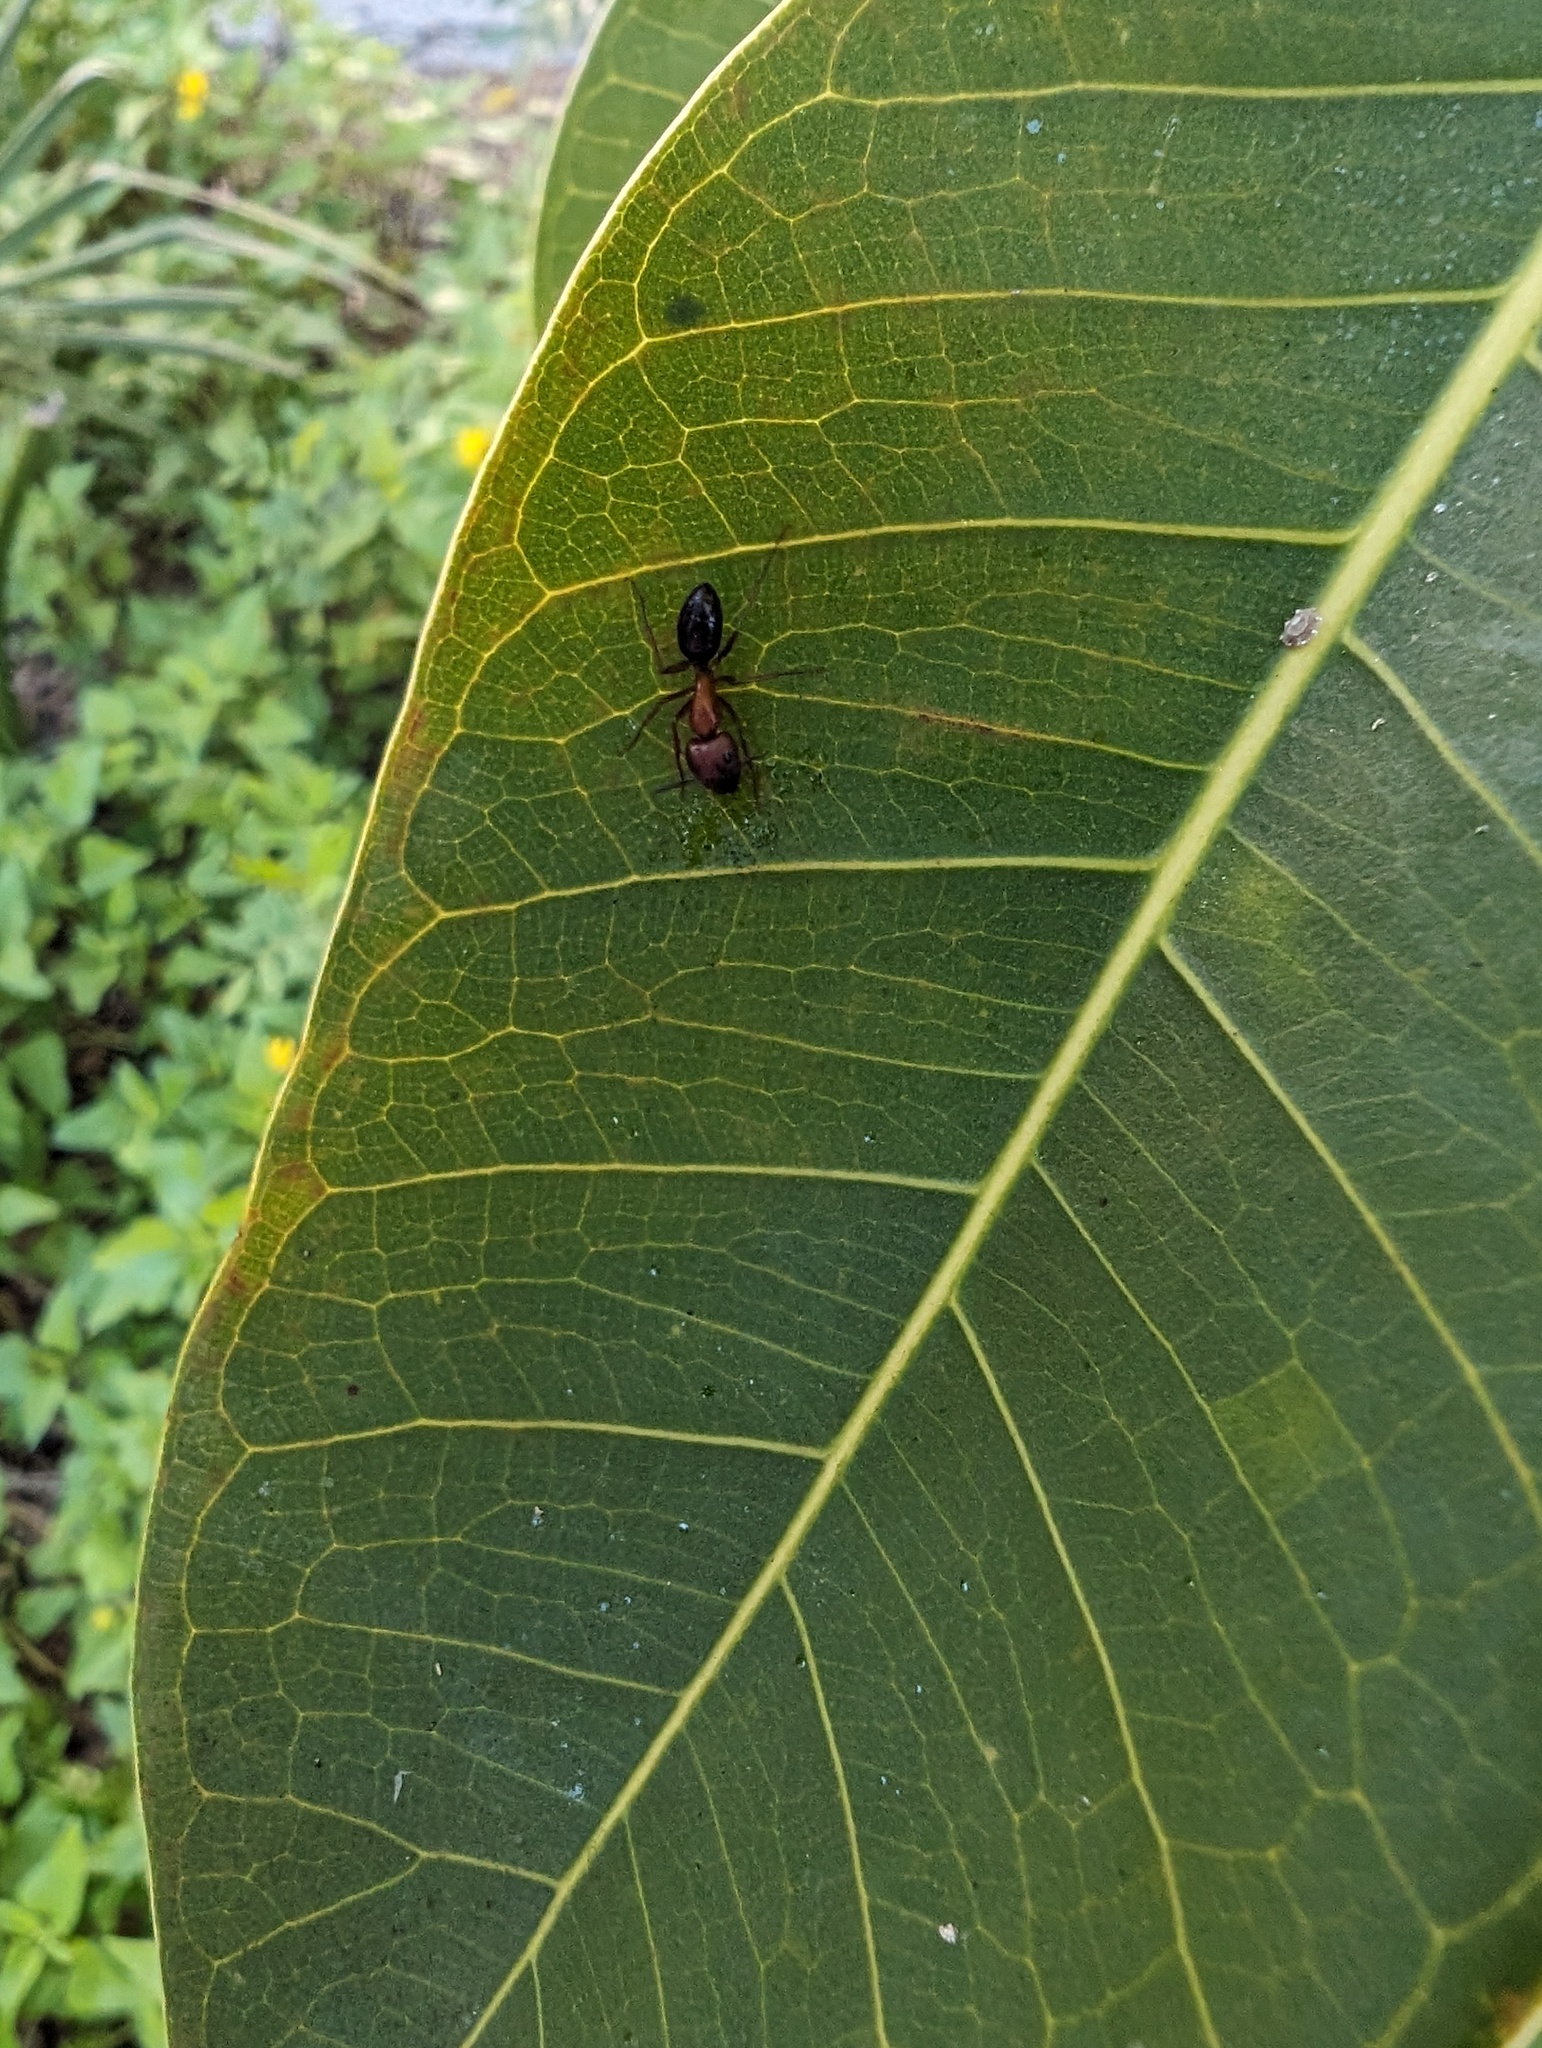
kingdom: Animalia
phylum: Arthropoda
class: Insecta
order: Hymenoptera
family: Formicidae
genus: Camponotus
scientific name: Camponotus floridanus
